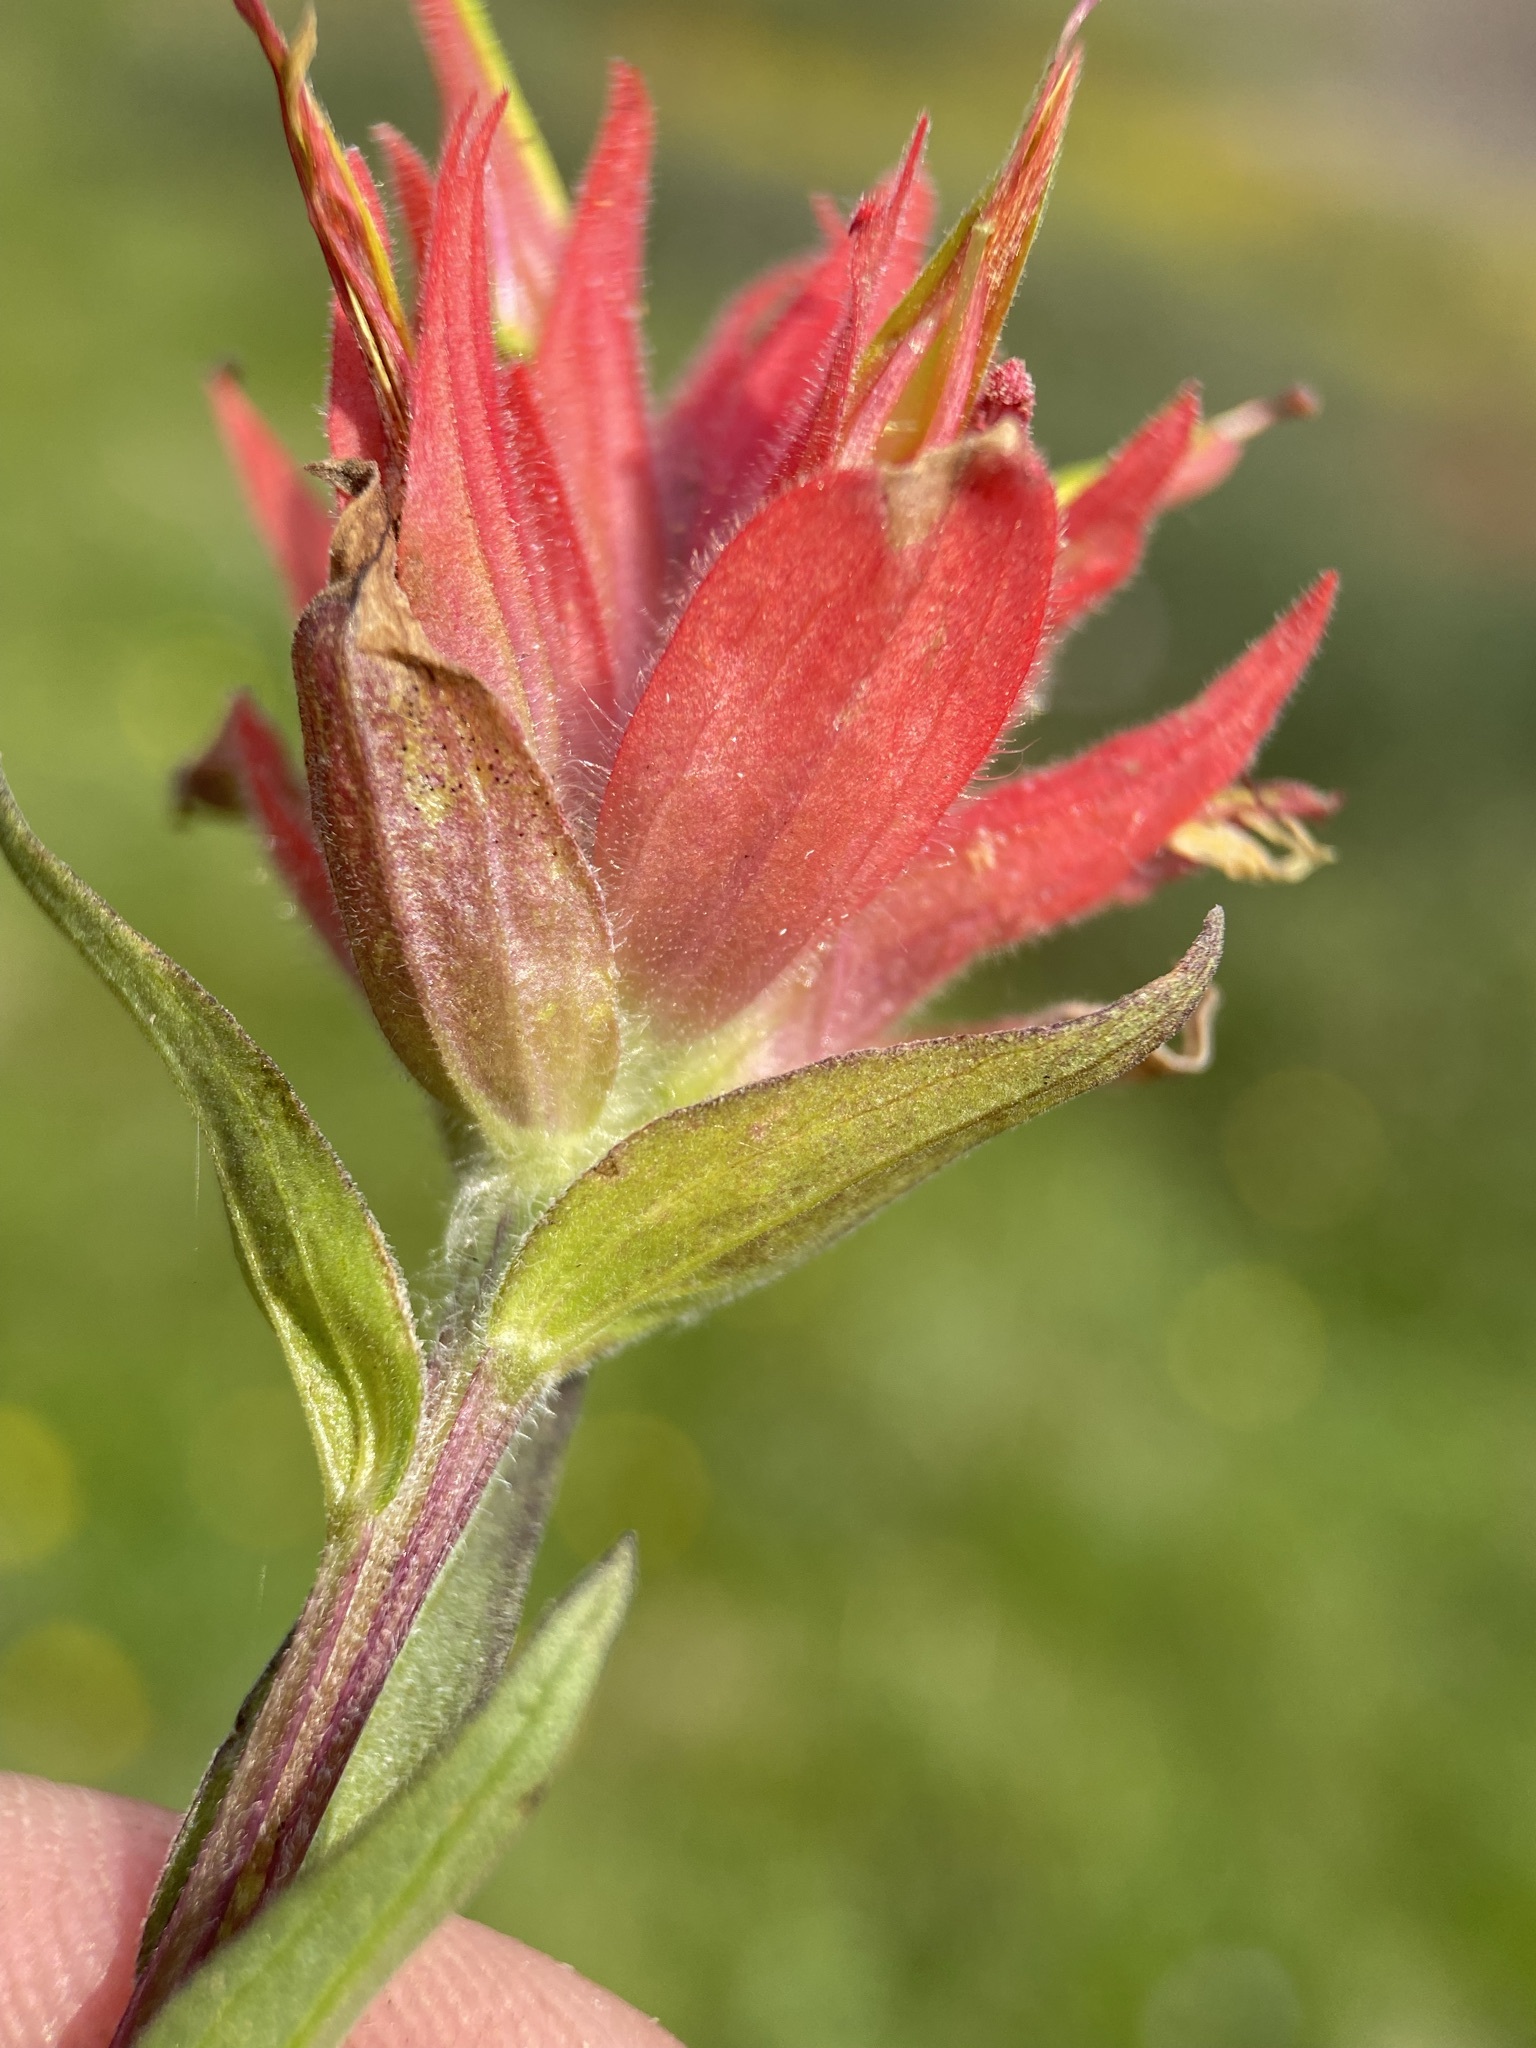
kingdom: Plantae
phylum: Tracheophyta
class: Magnoliopsida
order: Lamiales
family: Orobanchaceae
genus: Castilleja
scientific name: Castilleja miniata
